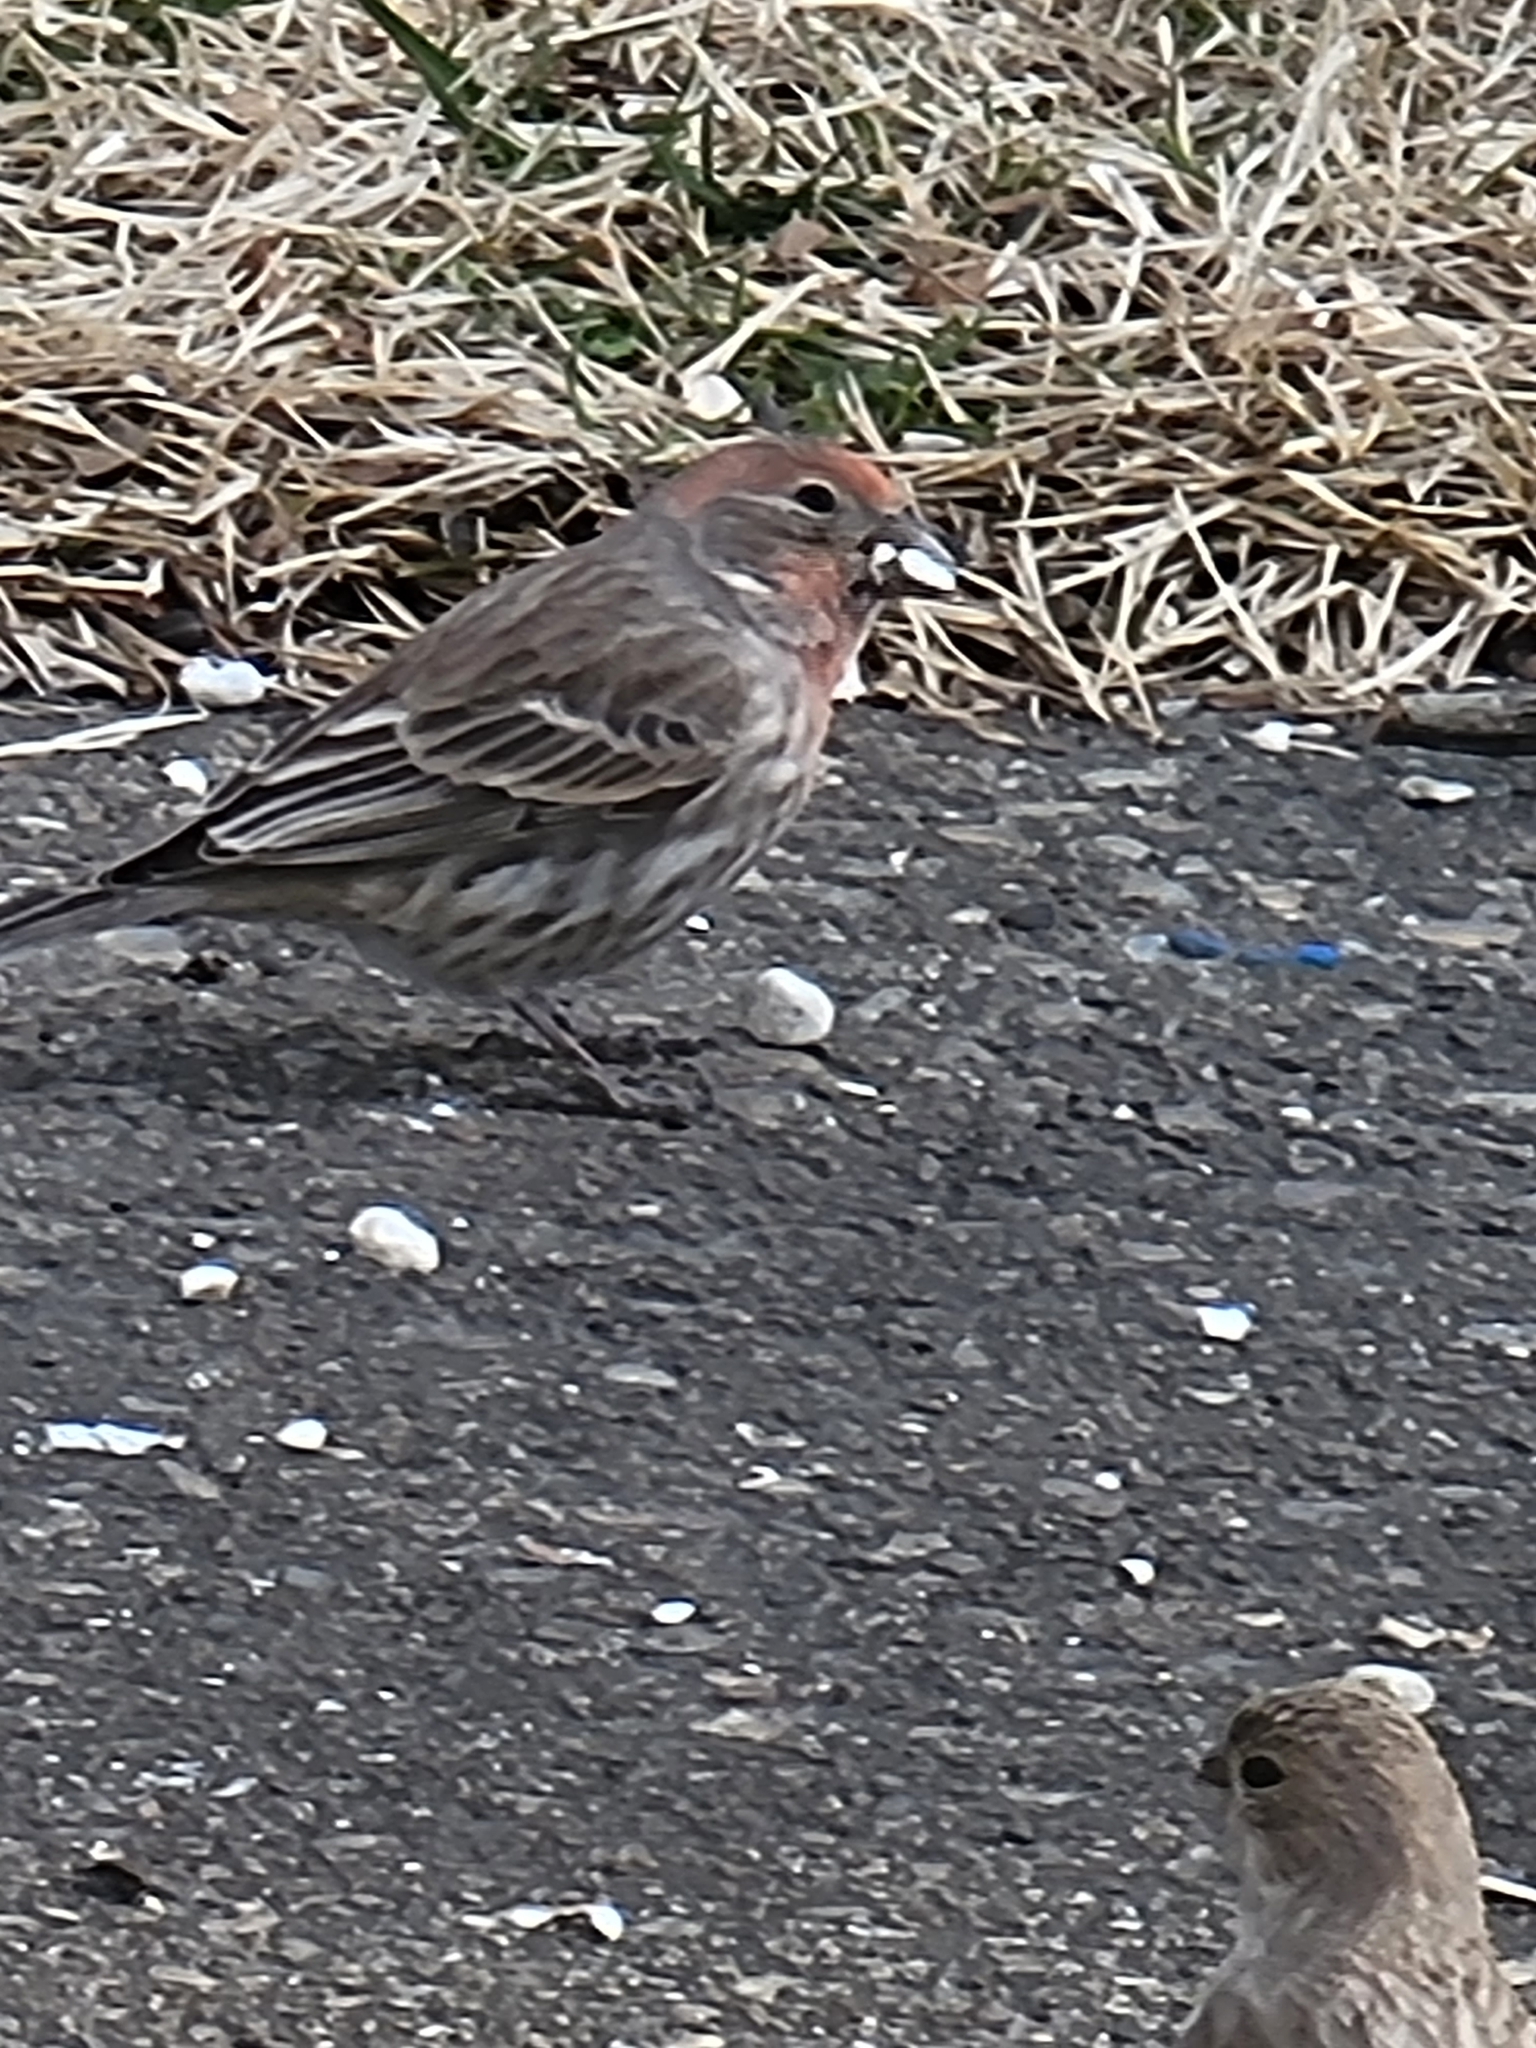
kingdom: Animalia
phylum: Chordata
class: Aves
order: Passeriformes
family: Fringillidae
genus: Haemorhous
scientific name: Haemorhous mexicanus
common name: House finch
